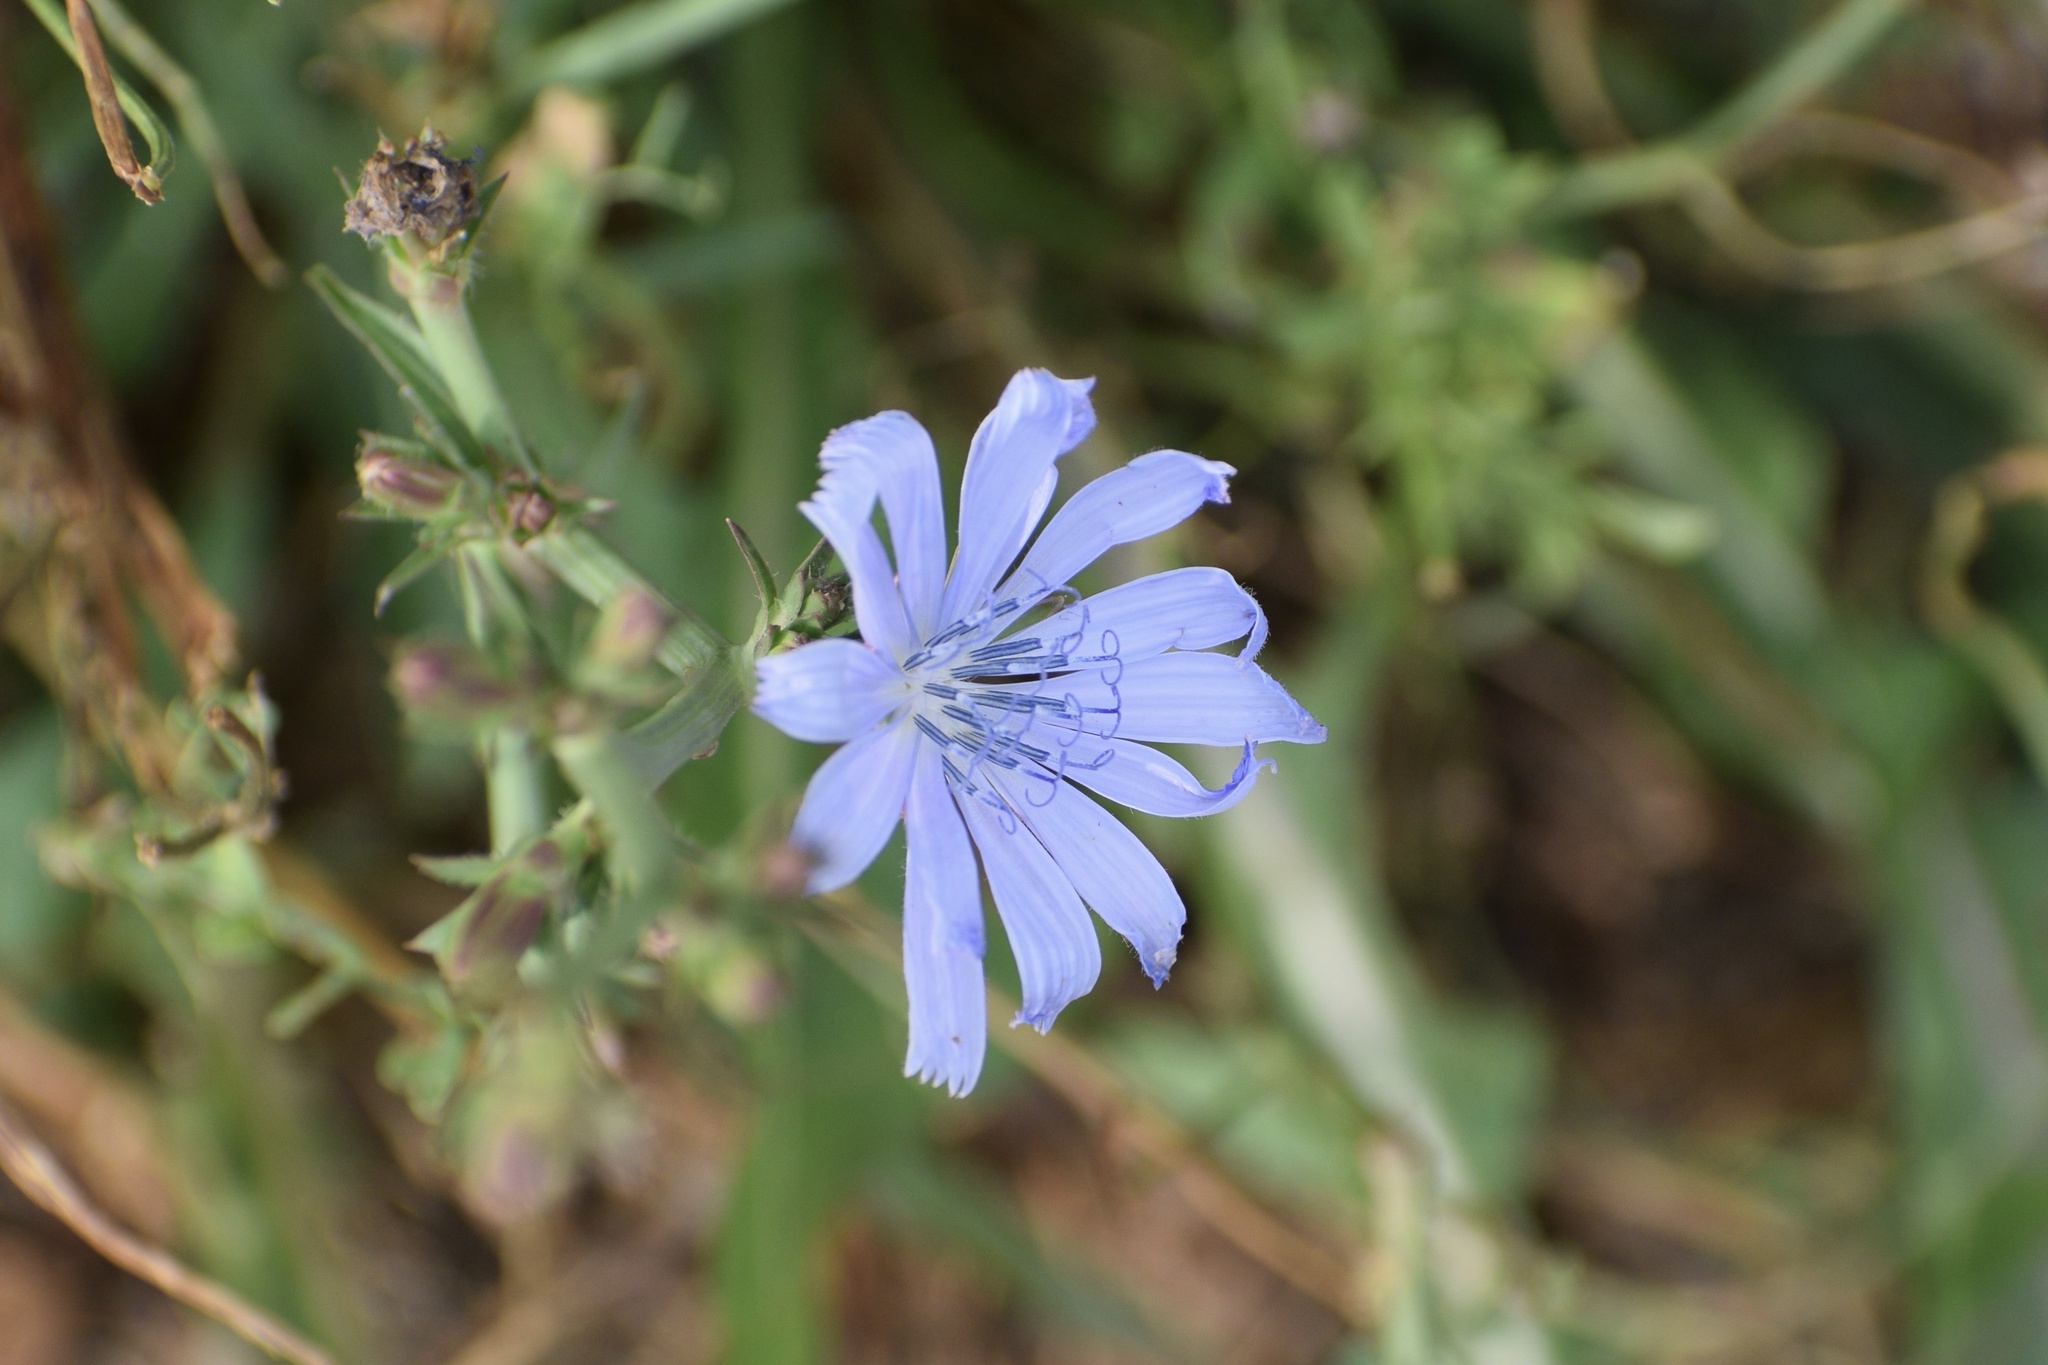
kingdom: Plantae
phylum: Tracheophyta
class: Magnoliopsida
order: Asterales
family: Asteraceae
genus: Cichorium
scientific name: Cichorium intybus
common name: Chicory
